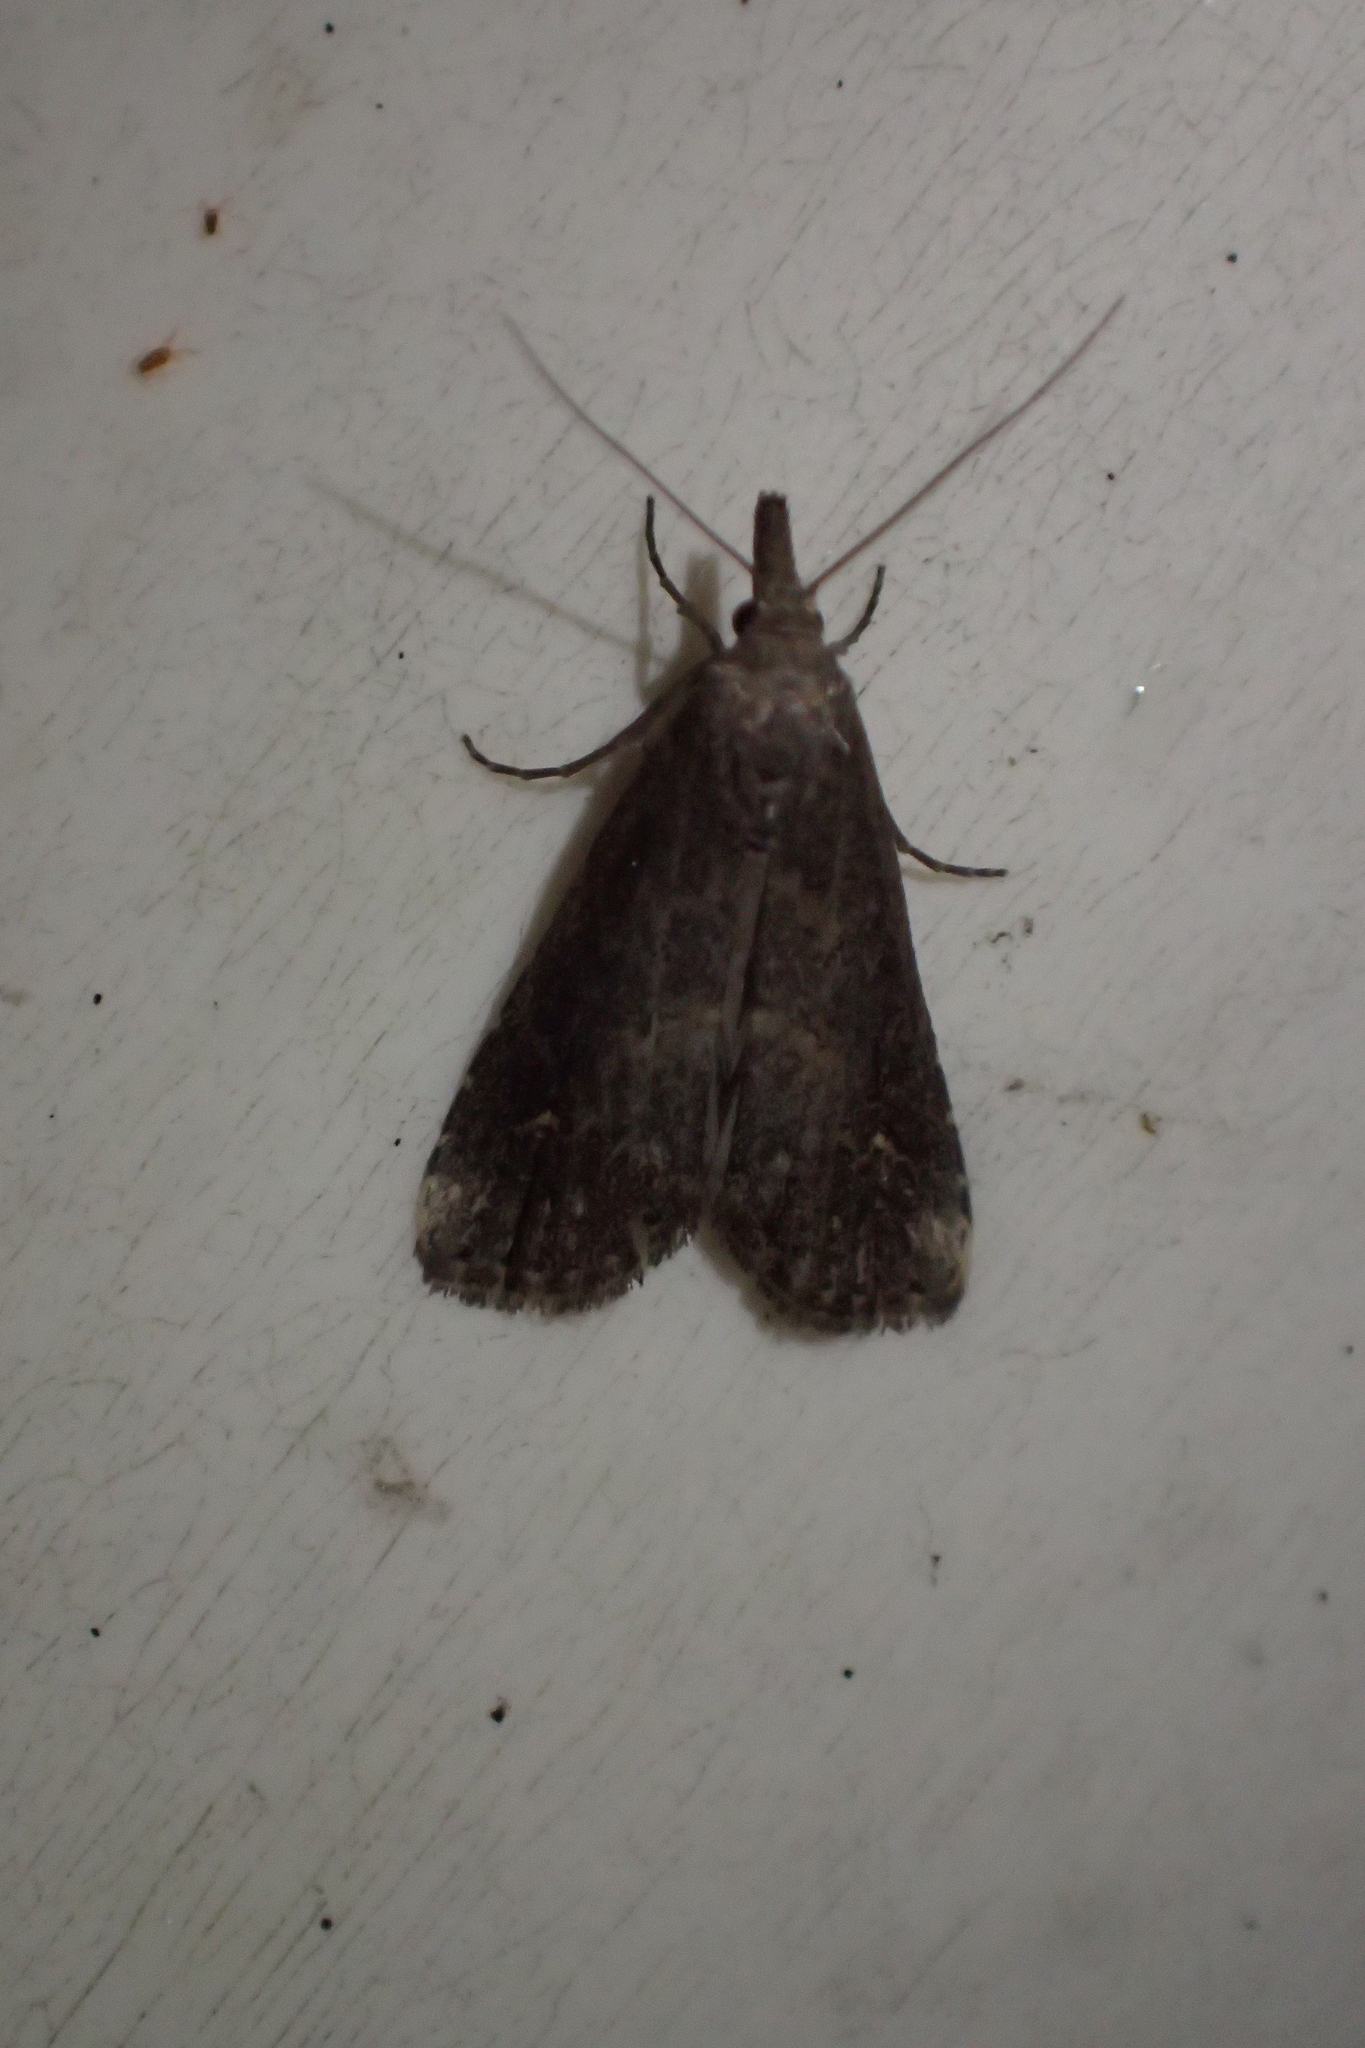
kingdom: Animalia
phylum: Arthropoda
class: Insecta
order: Lepidoptera
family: Erebidae
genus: Schrankia
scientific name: Schrankia costaestrigalis
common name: Pinion-streaked snout
